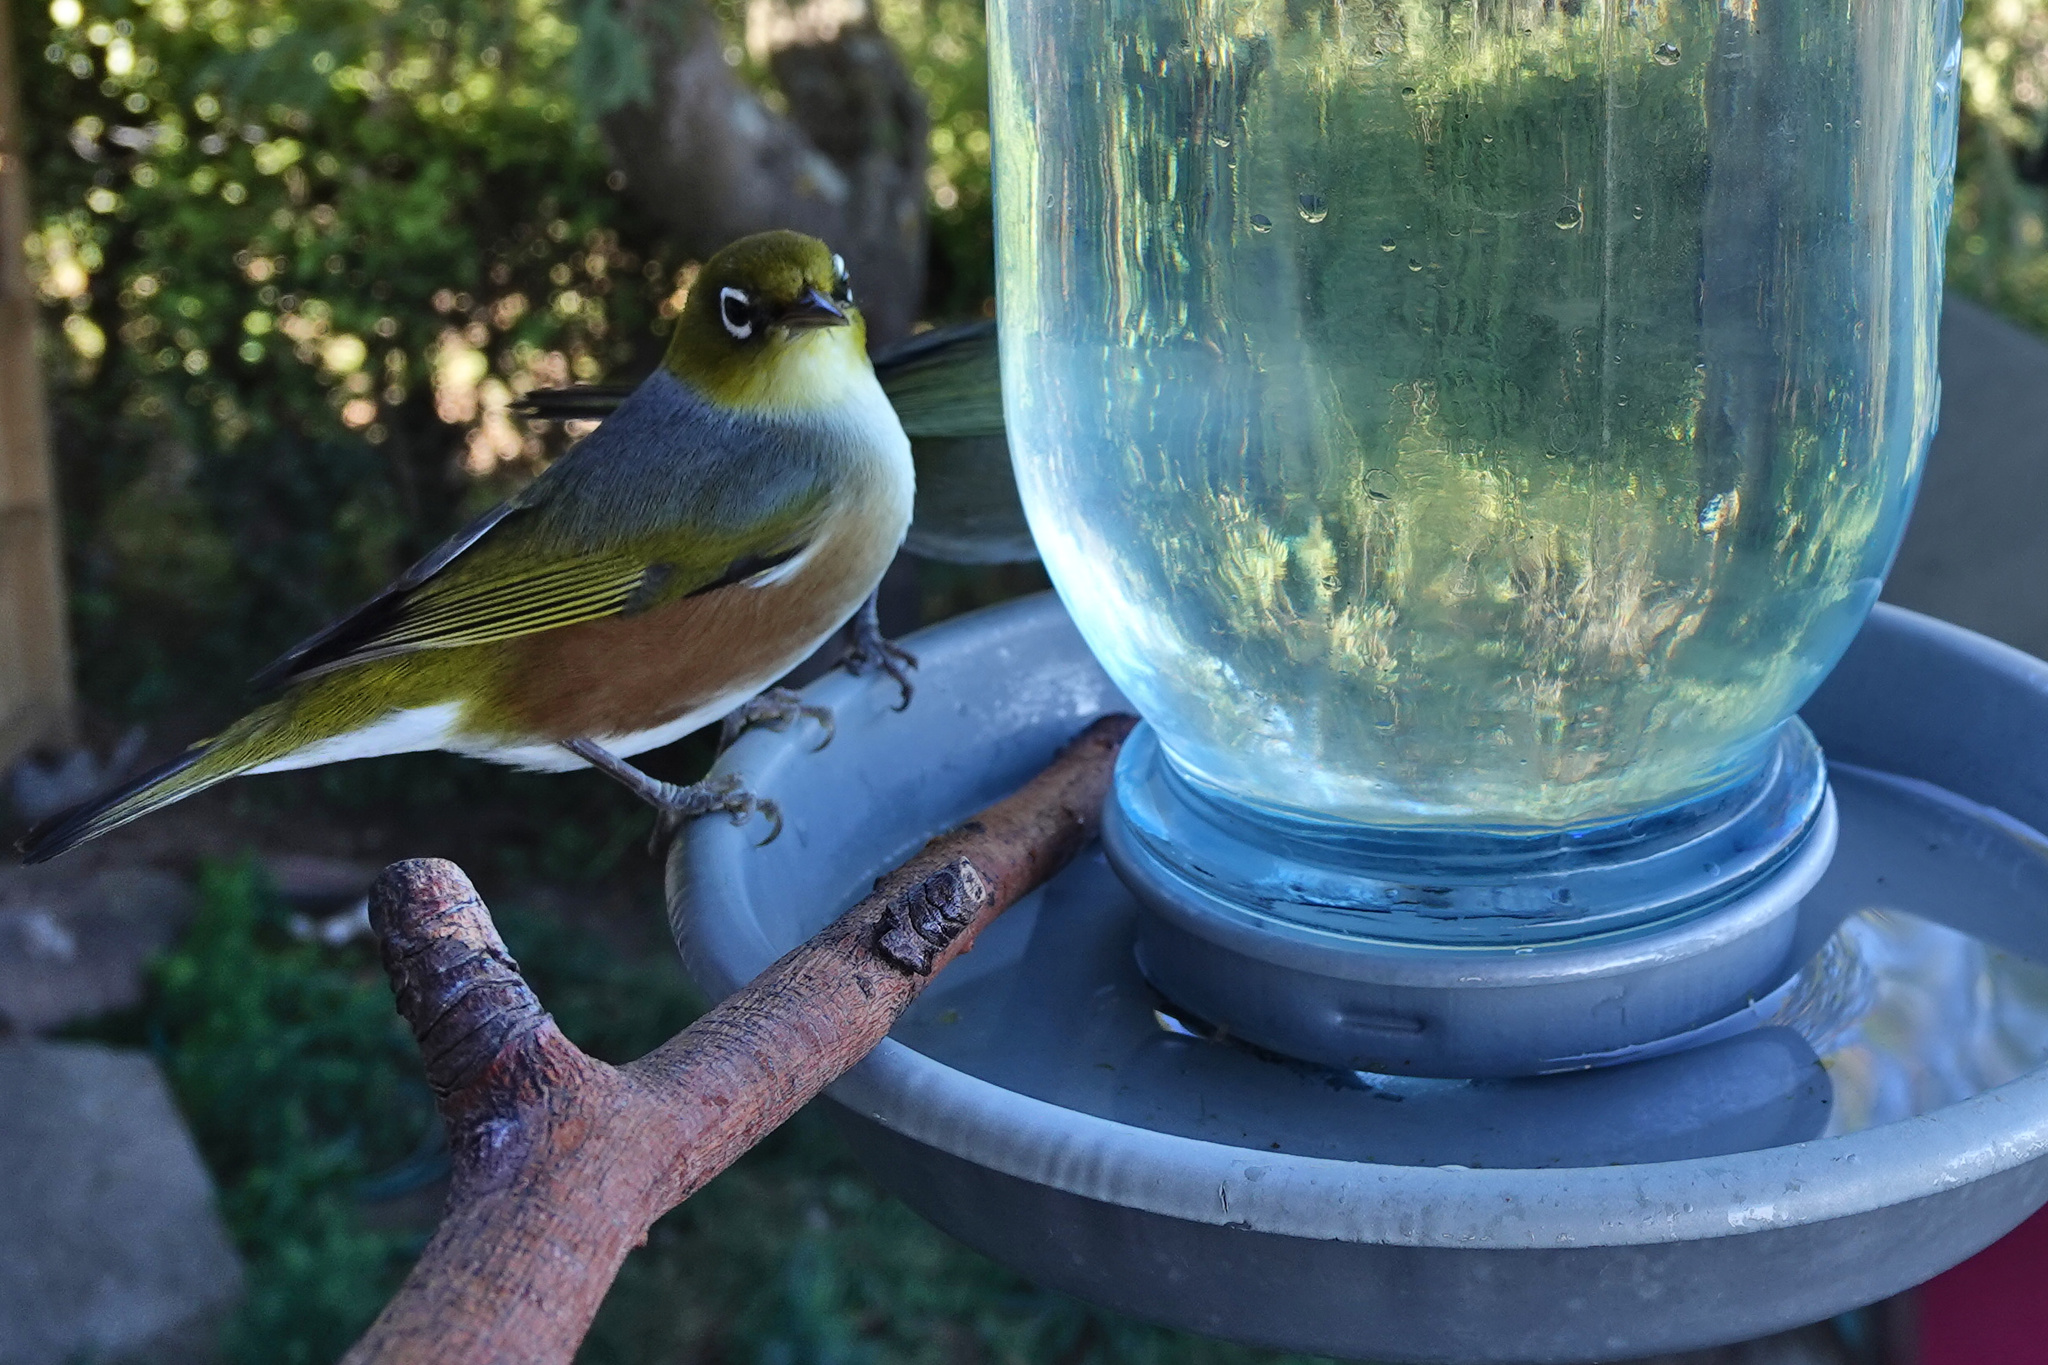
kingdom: Animalia
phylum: Chordata
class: Aves
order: Passeriformes
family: Zosteropidae
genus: Zosterops
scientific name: Zosterops lateralis
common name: Silvereye
